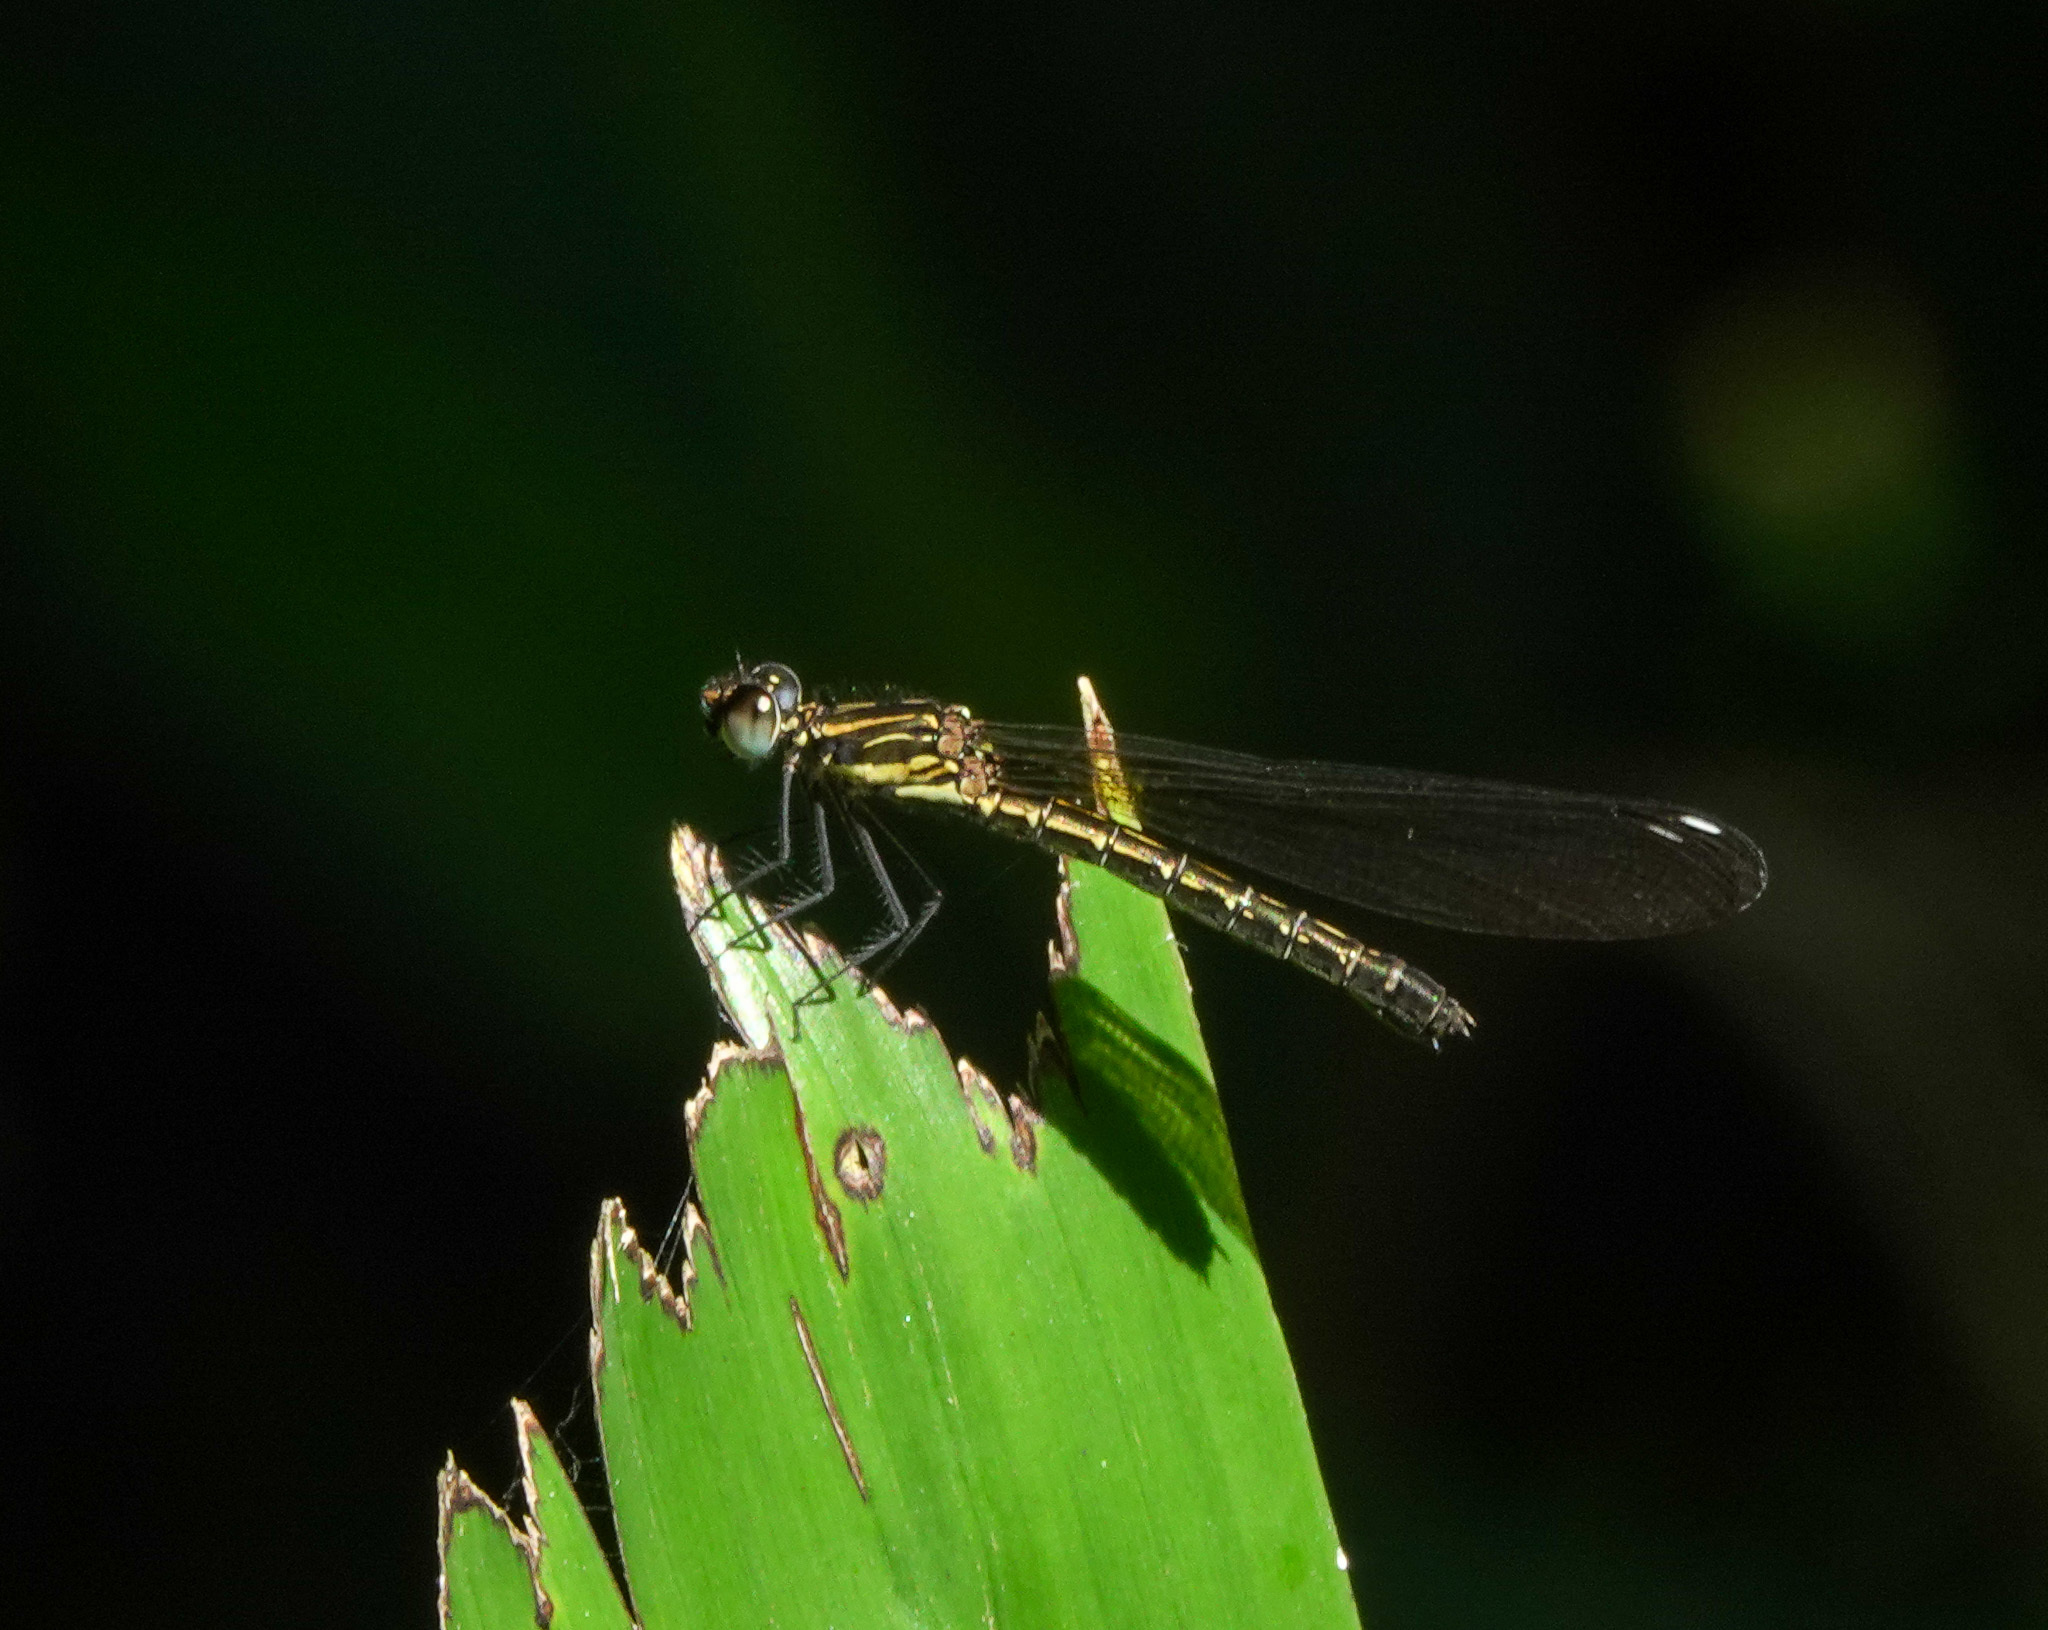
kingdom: Animalia
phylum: Arthropoda
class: Insecta
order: Odonata
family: Chlorocyphidae
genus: Heliocypha
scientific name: Heliocypha perforata
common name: Common blue jewel
